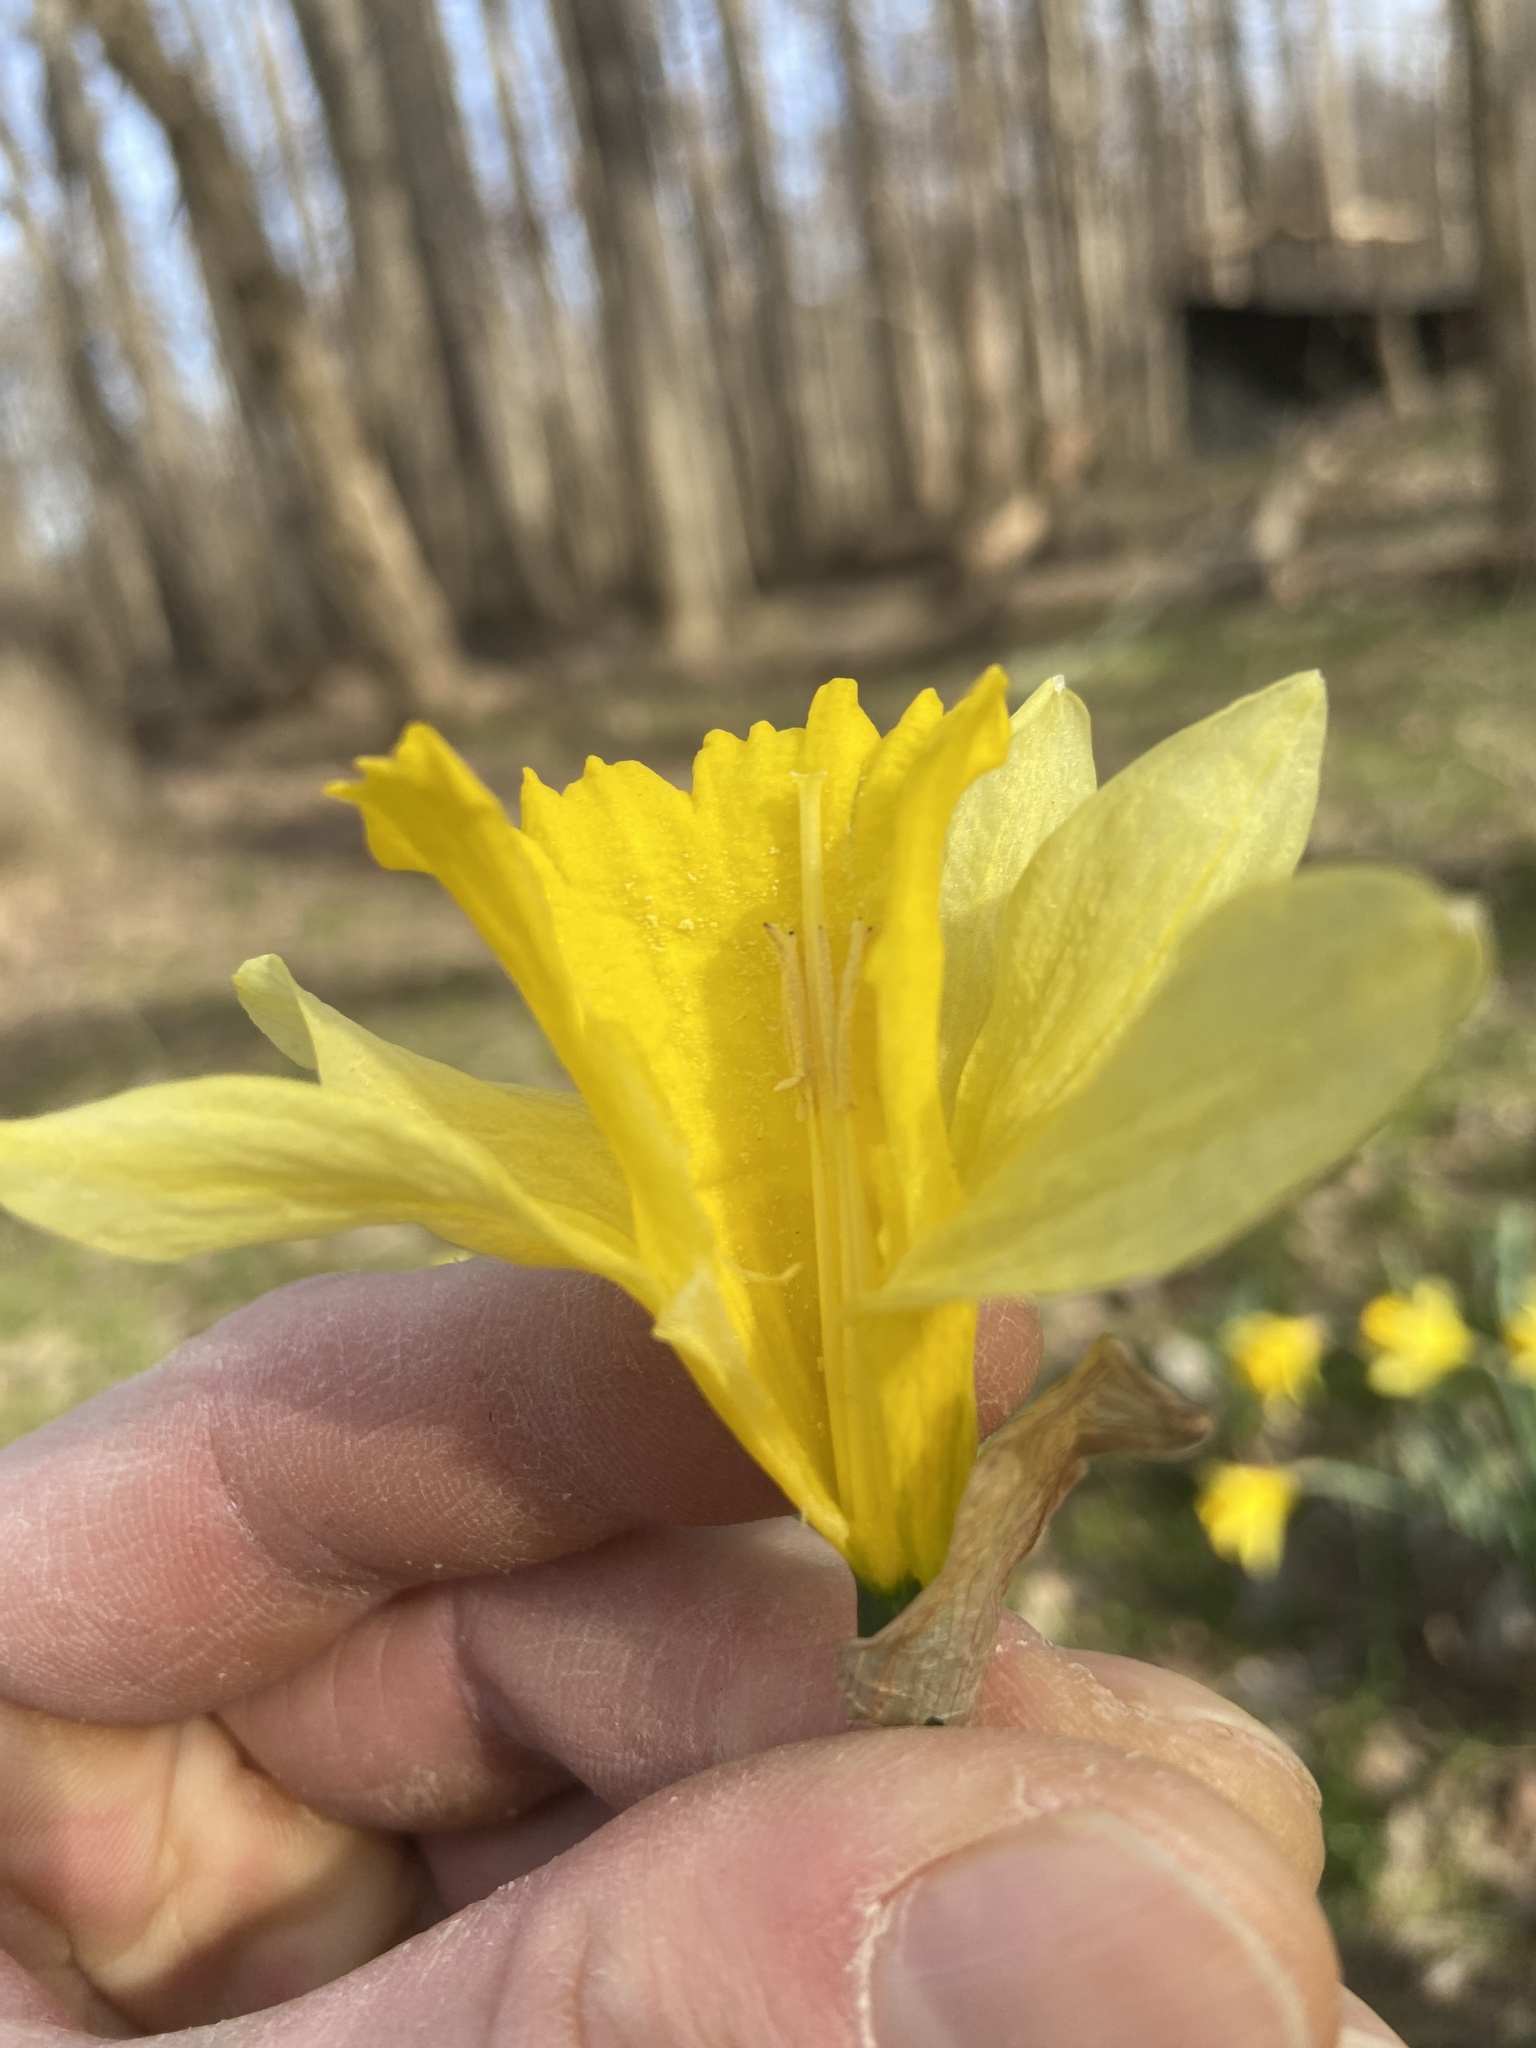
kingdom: Plantae
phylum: Tracheophyta
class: Liliopsida
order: Asparagales
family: Amaryllidaceae
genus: Narcissus
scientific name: Narcissus pseudonarcissus
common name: Daffodil
